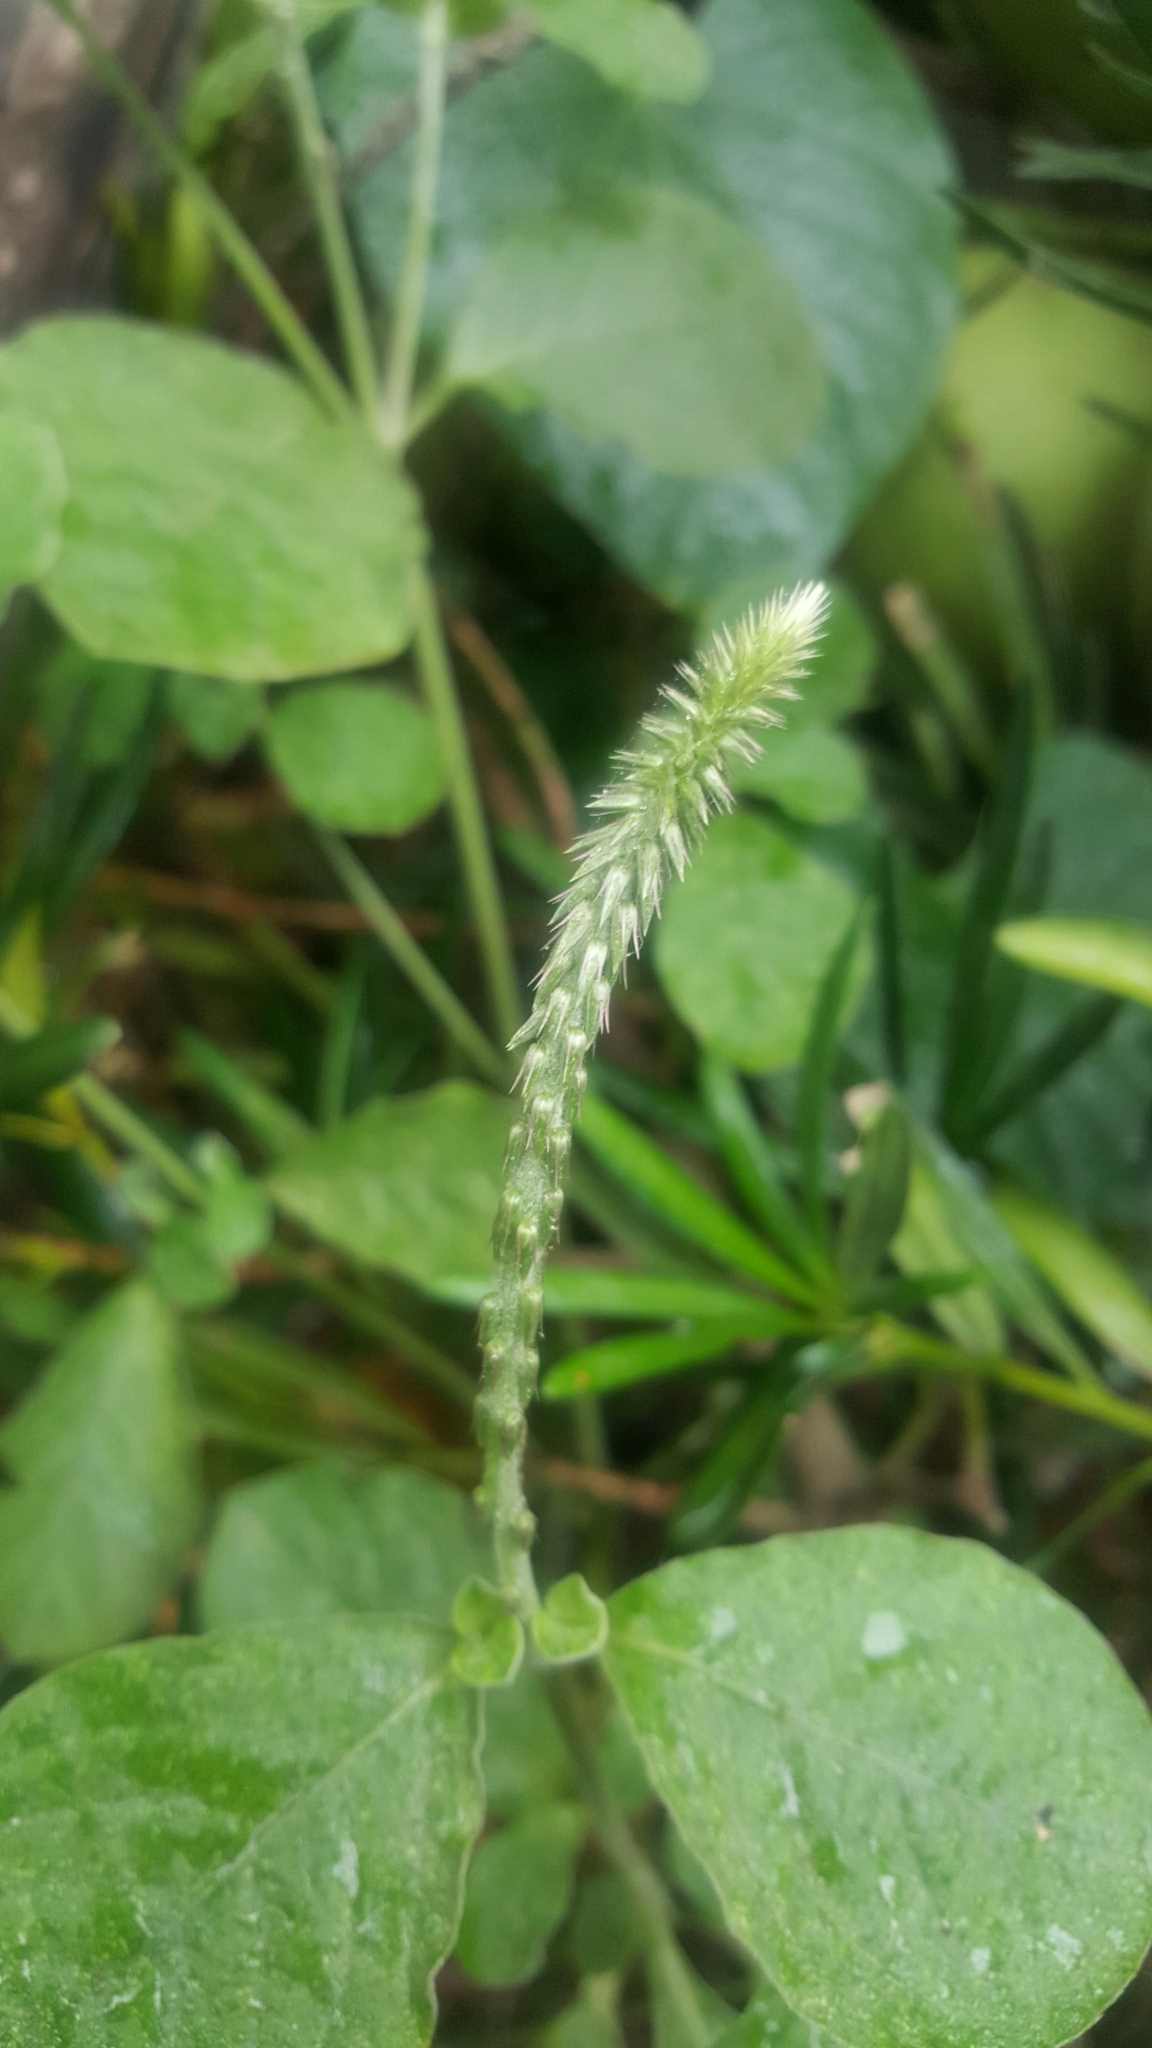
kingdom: Plantae
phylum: Tracheophyta
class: Magnoliopsida
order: Caryophyllales
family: Amaranthaceae
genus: Achyranthes
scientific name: Achyranthes aspera
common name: Devil's horsewhip
